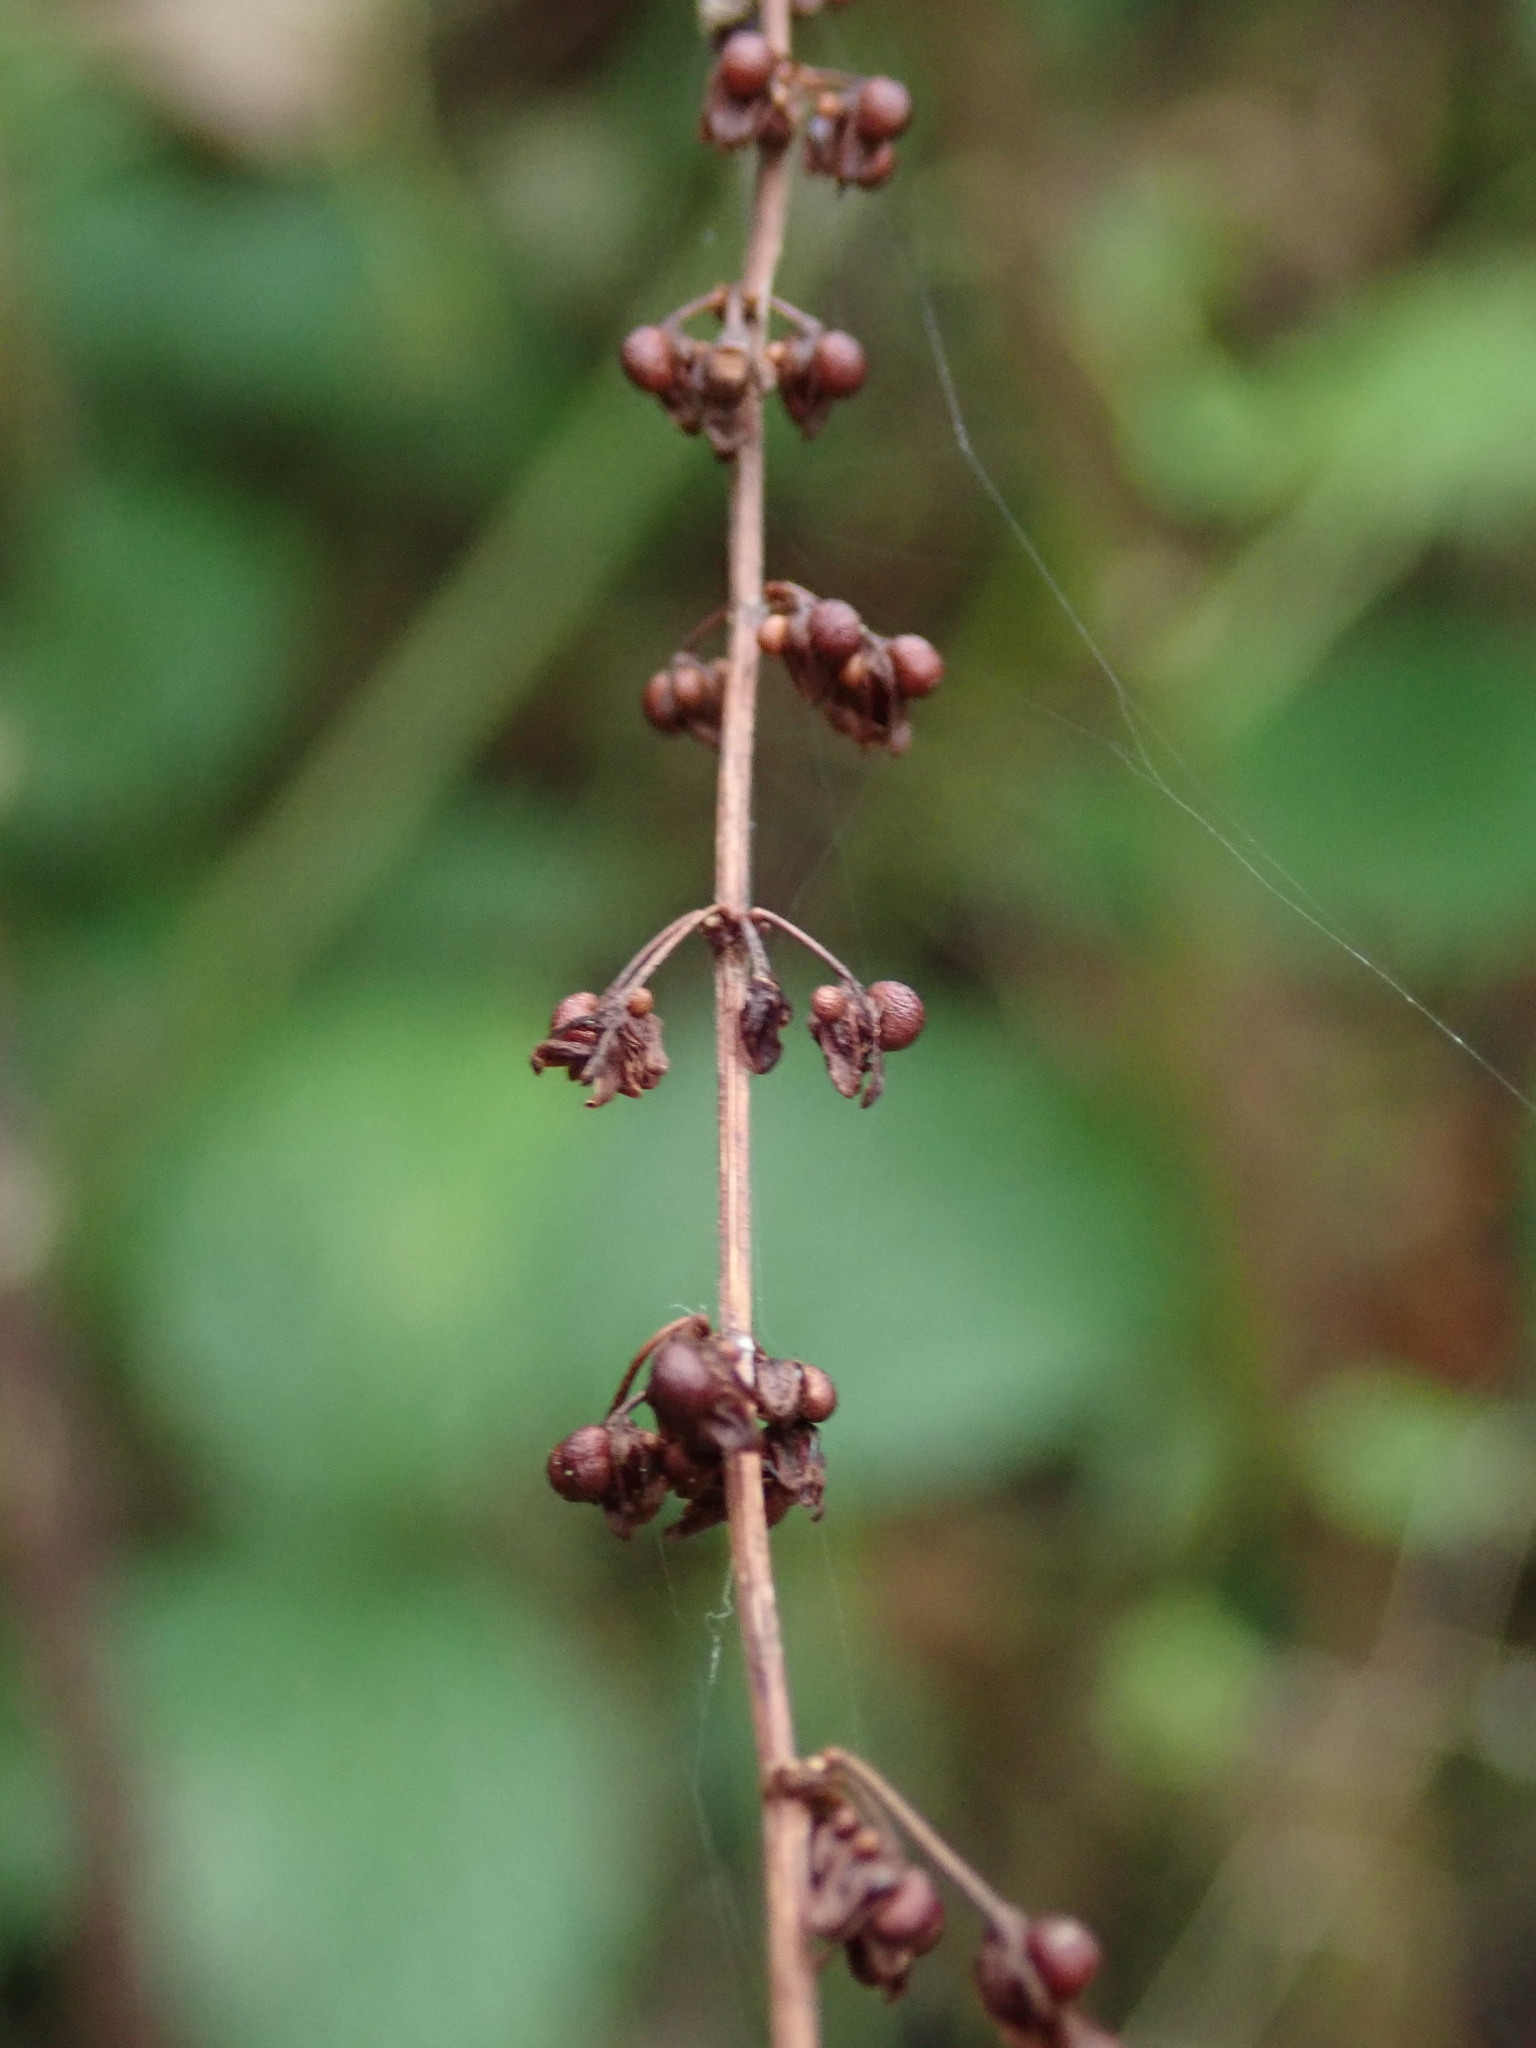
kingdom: Plantae
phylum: Tracheophyta
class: Magnoliopsida
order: Caryophyllales
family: Polygonaceae
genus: Rumex
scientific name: Rumex sanguineus
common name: Wood dock
